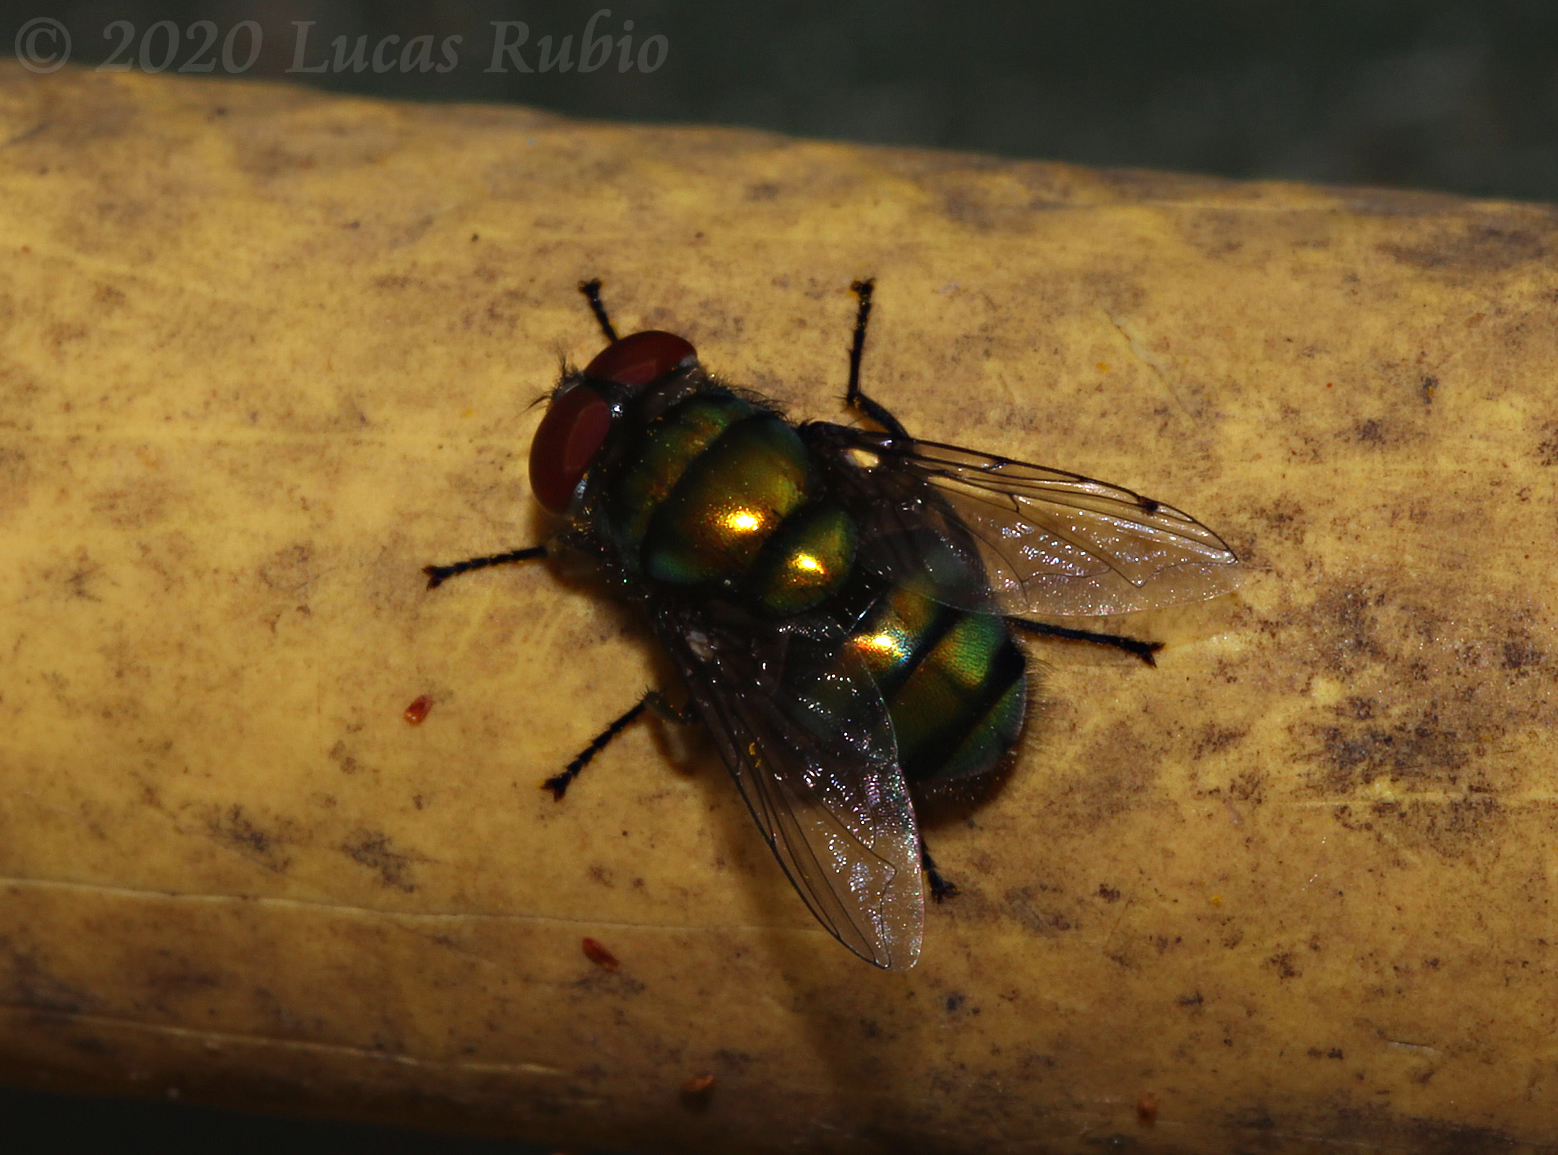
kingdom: Animalia
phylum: Arthropoda
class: Insecta
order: Diptera
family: Calliphoridae
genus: Chrysomya
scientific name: Chrysomya
